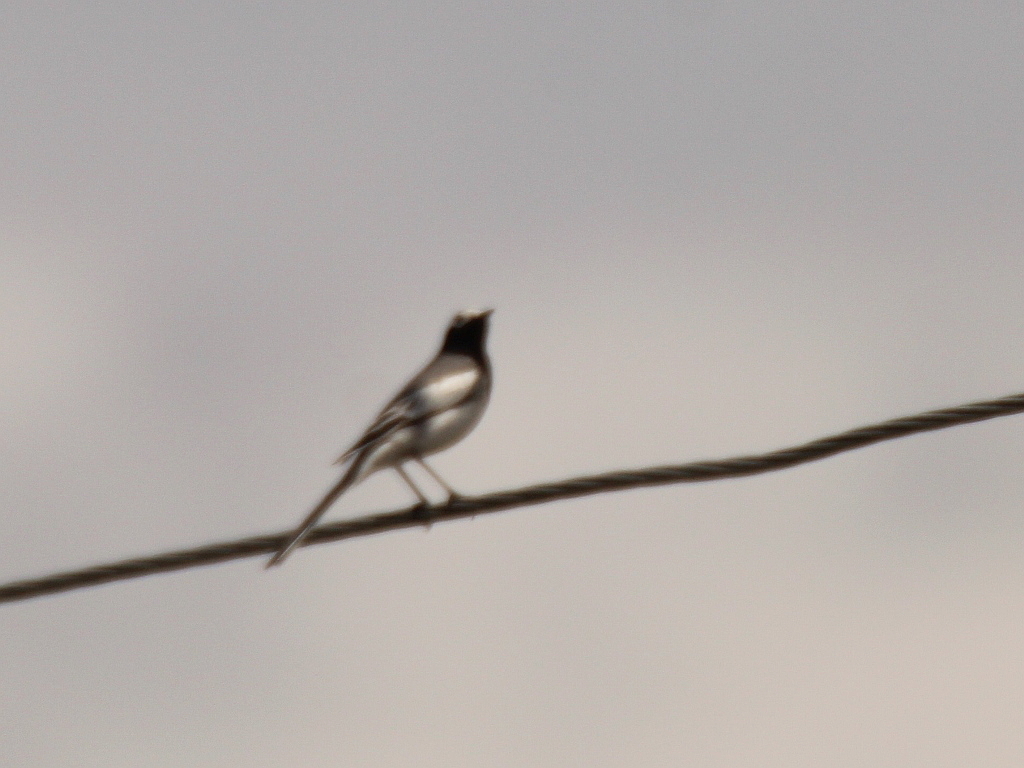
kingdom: Animalia
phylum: Chordata
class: Aves
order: Passeriformes
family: Motacillidae
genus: Motacilla
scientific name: Motacilla alba
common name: White wagtail
